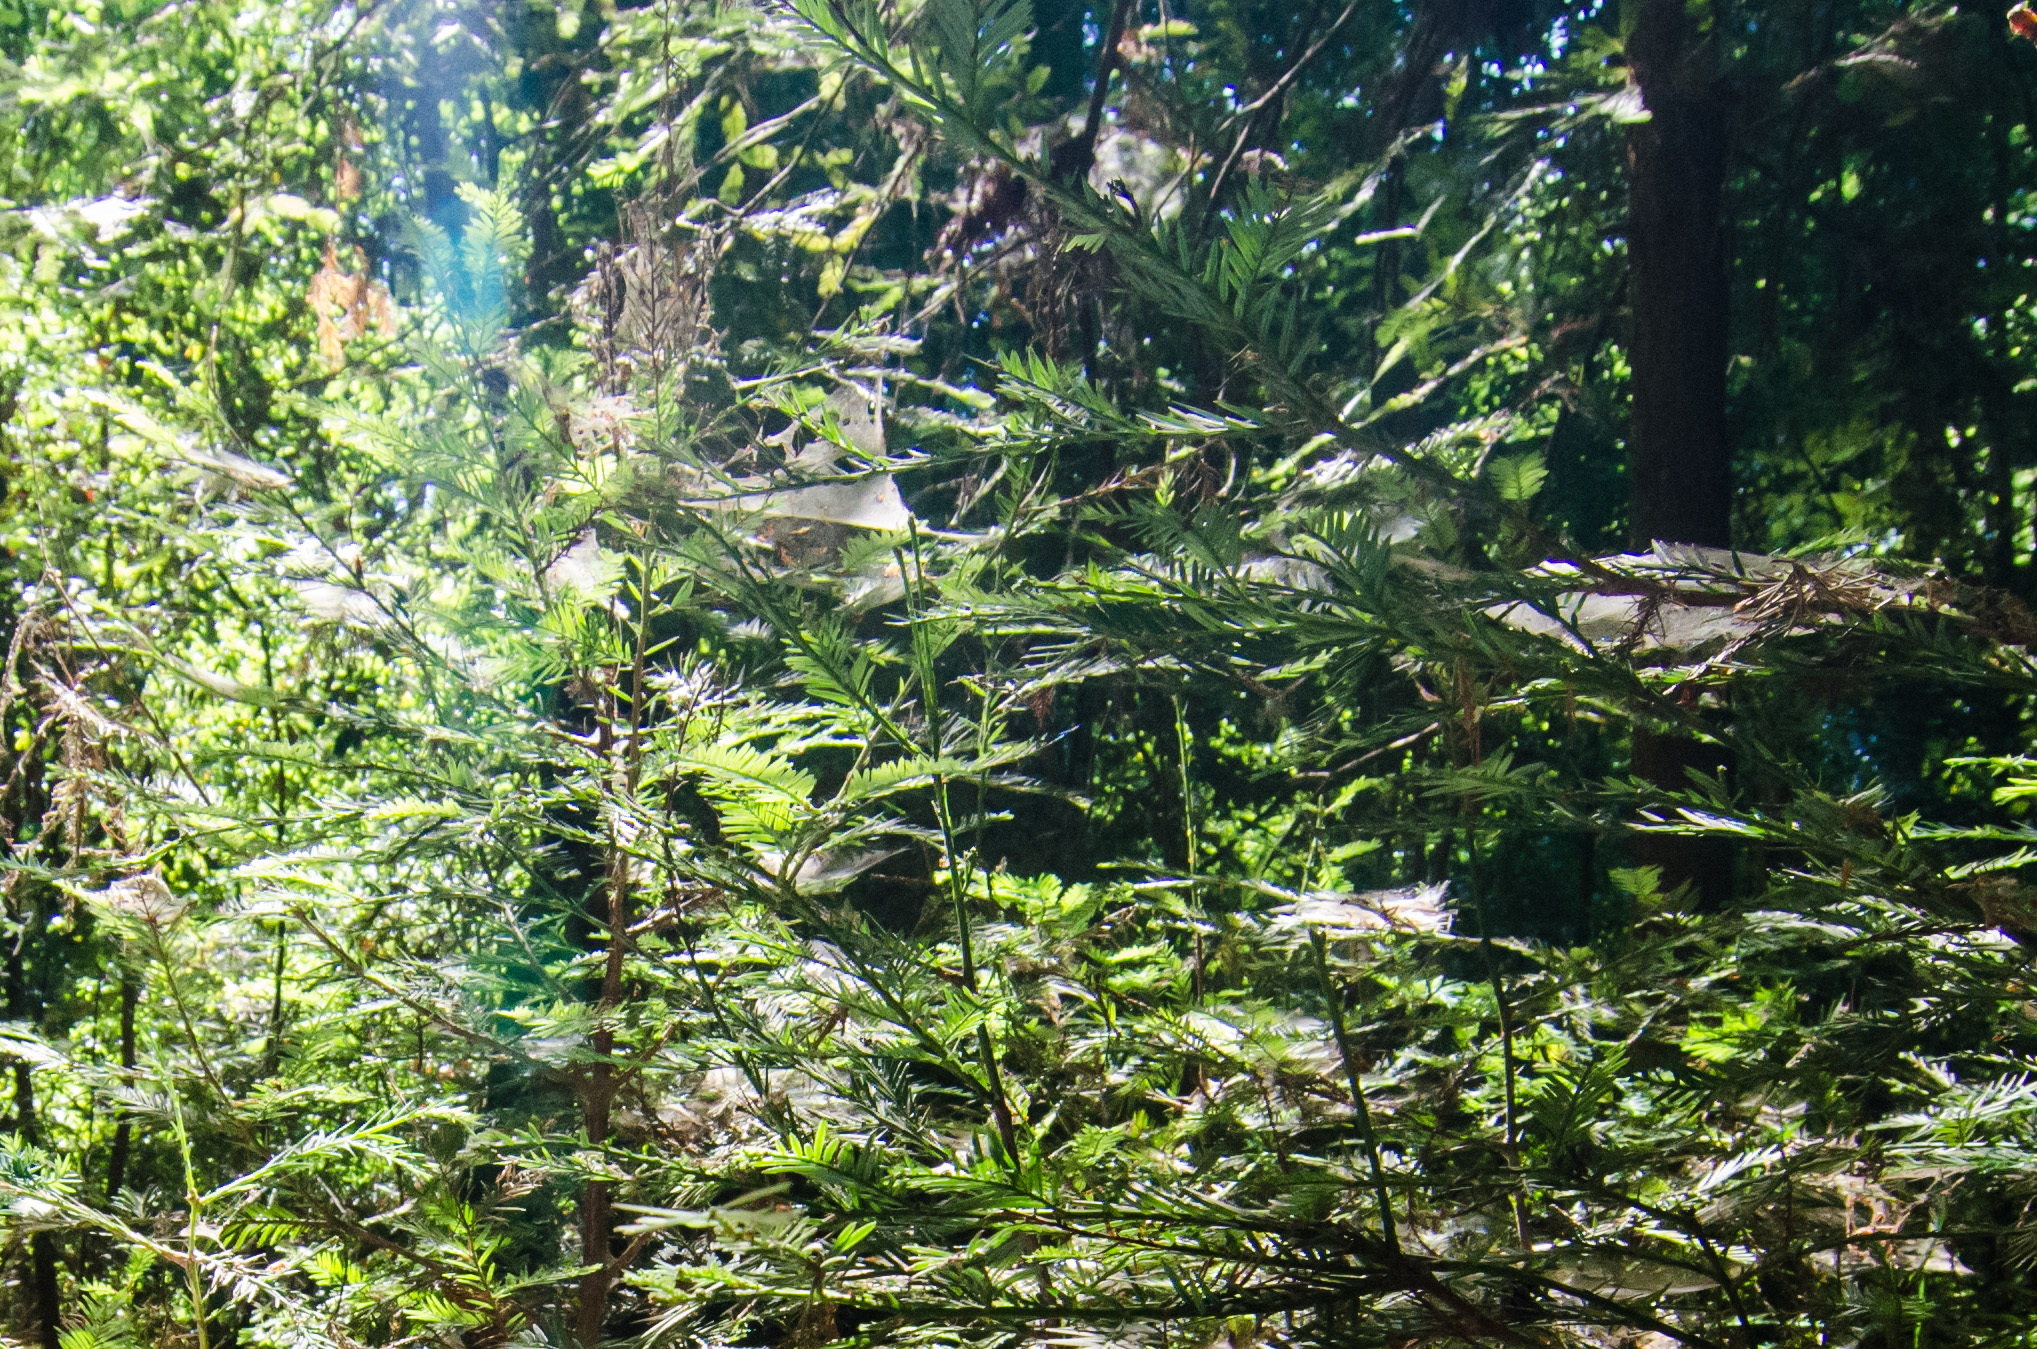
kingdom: Animalia
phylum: Arthropoda
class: Arachnida
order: Araneae
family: Linyphiidae
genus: Neriene
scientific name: Neriene litigiosa
